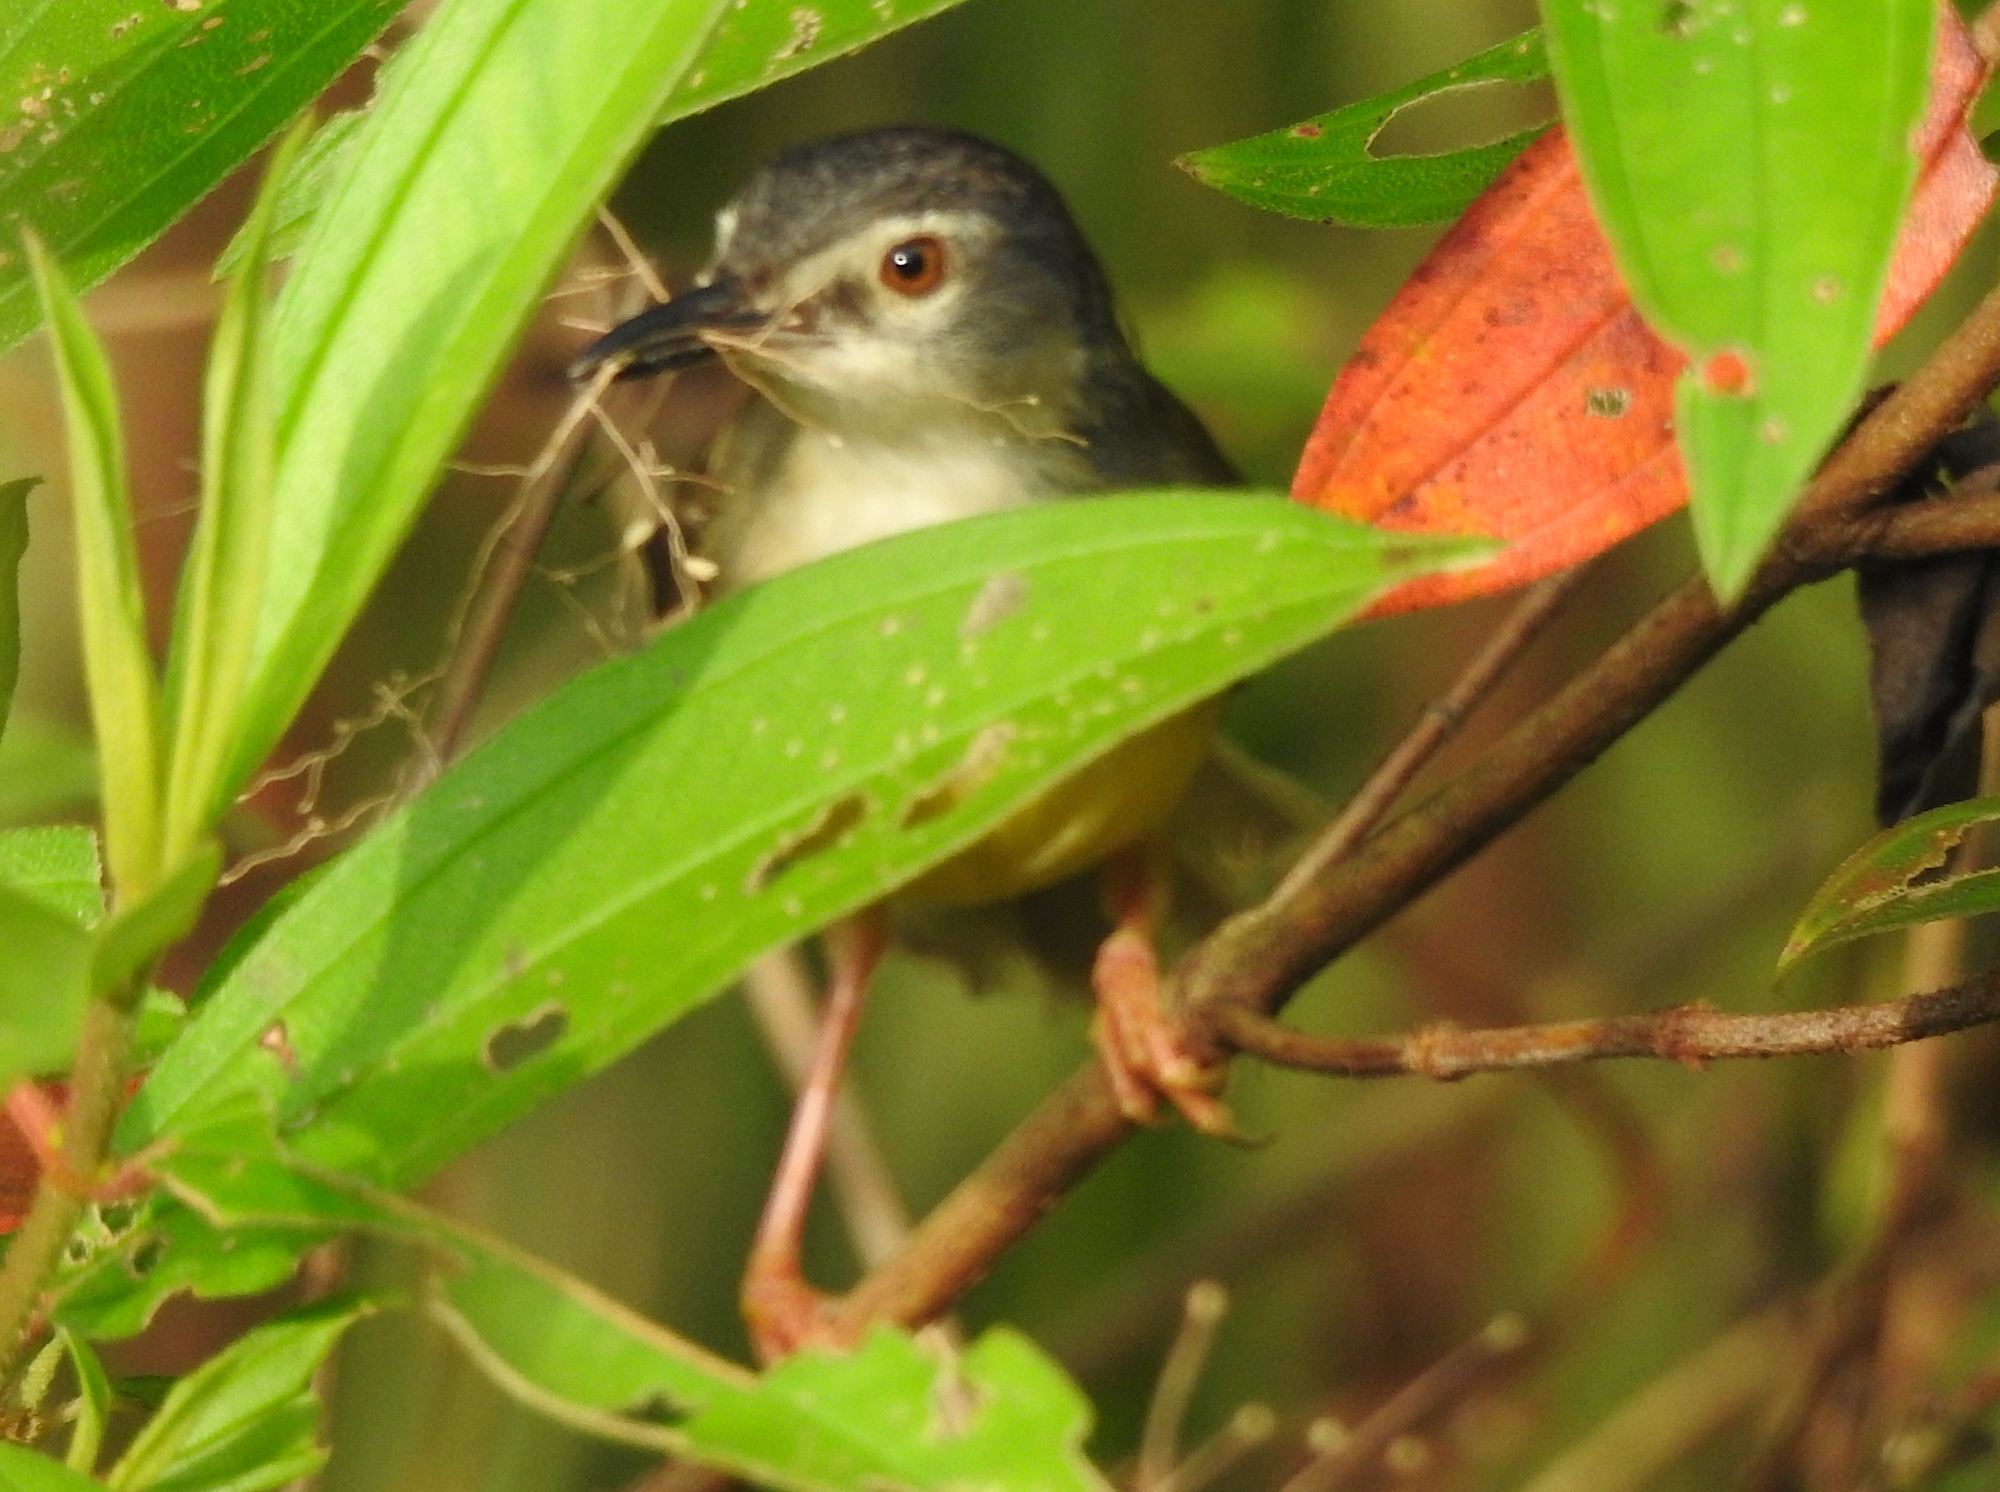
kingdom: Animalia
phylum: Chordata
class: Aves
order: Passeriformes
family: Cisticolidae
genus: Prinia
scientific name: Prinia flaviventris
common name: Yellow-bellied prinia
